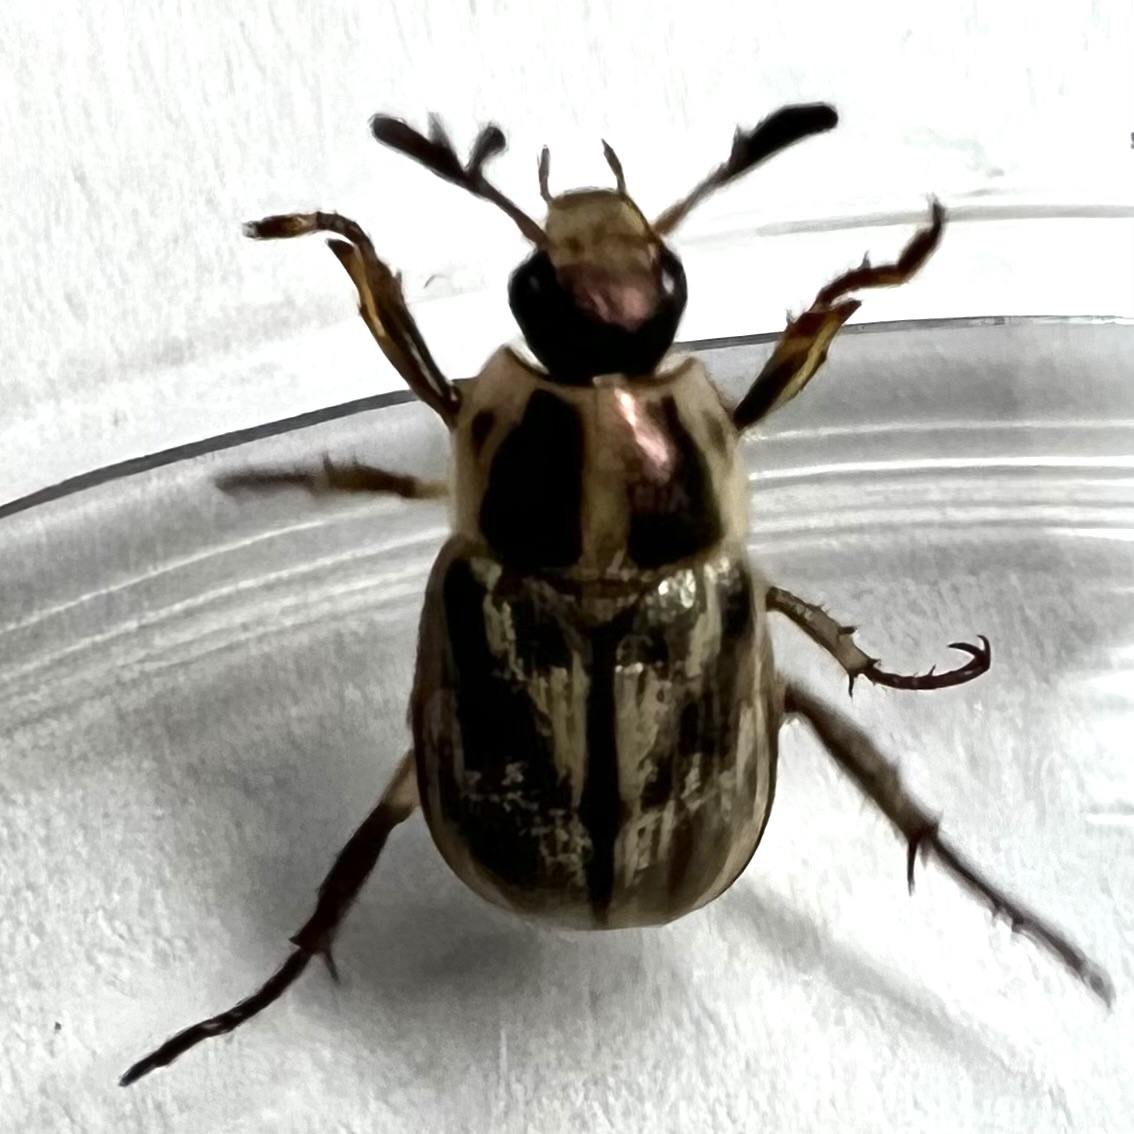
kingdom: Animalia
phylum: Arthropoda
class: Insecta
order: Coleoptera
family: Scarabaeidae
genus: Exomala
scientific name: Exomala orientalis
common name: Oriental beetle
